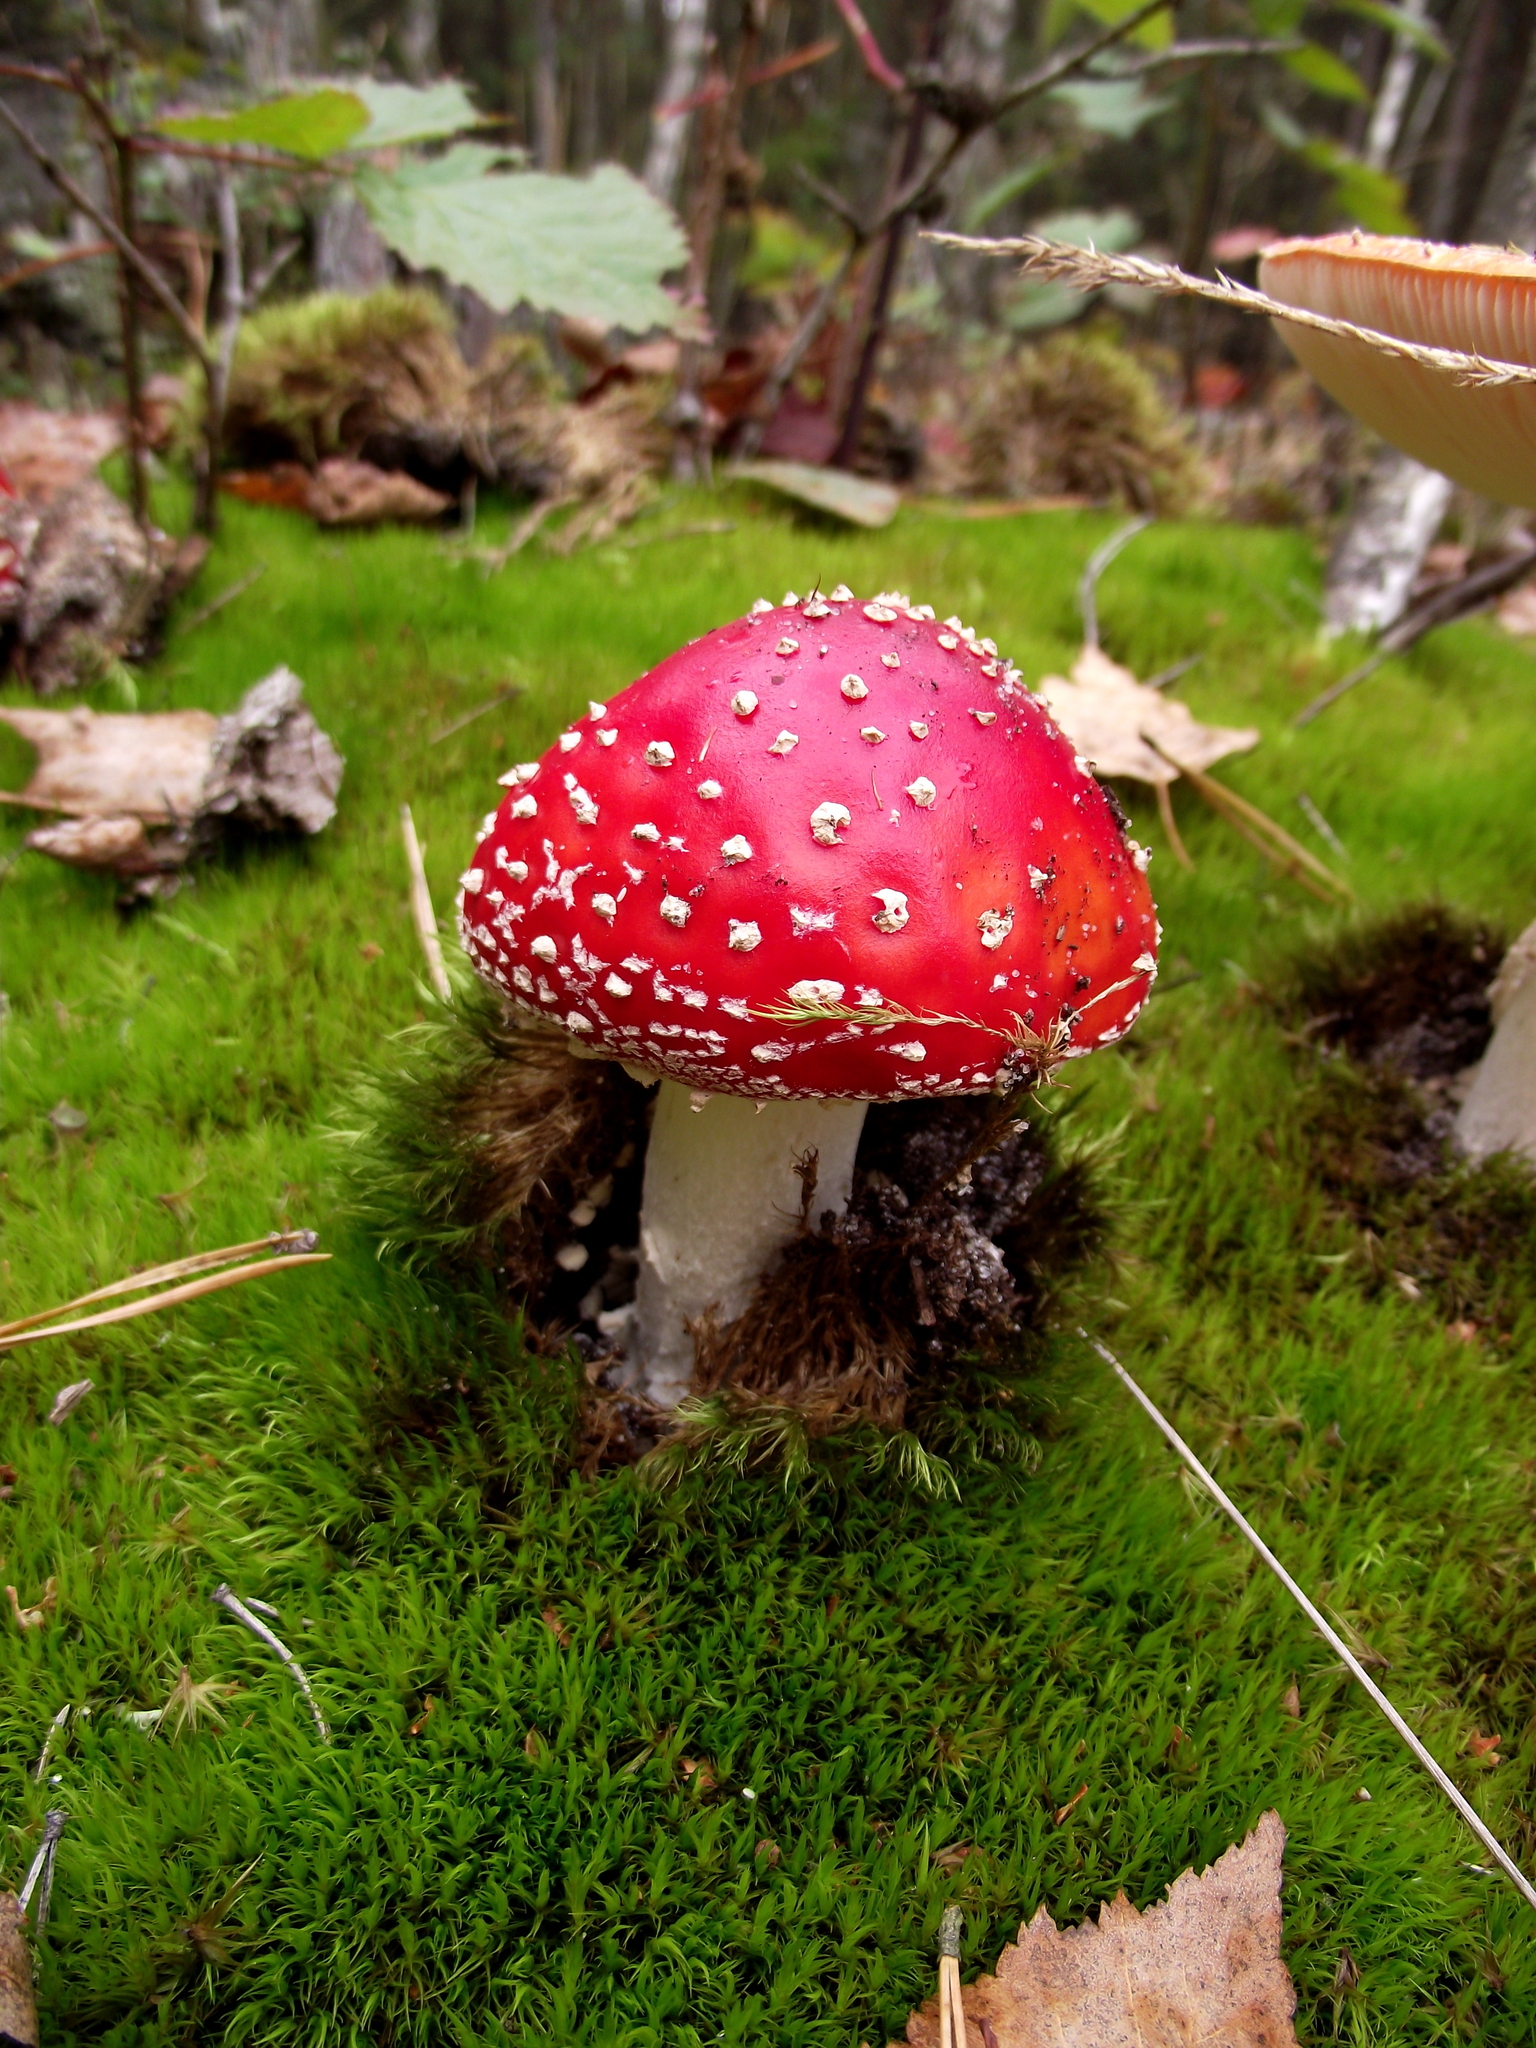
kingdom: Fungi
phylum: Basidiomycota
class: Agaricomycetes
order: Agaricales
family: Amanitaceae
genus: Amanita
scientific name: Amanita muscaria
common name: Fly agaric
